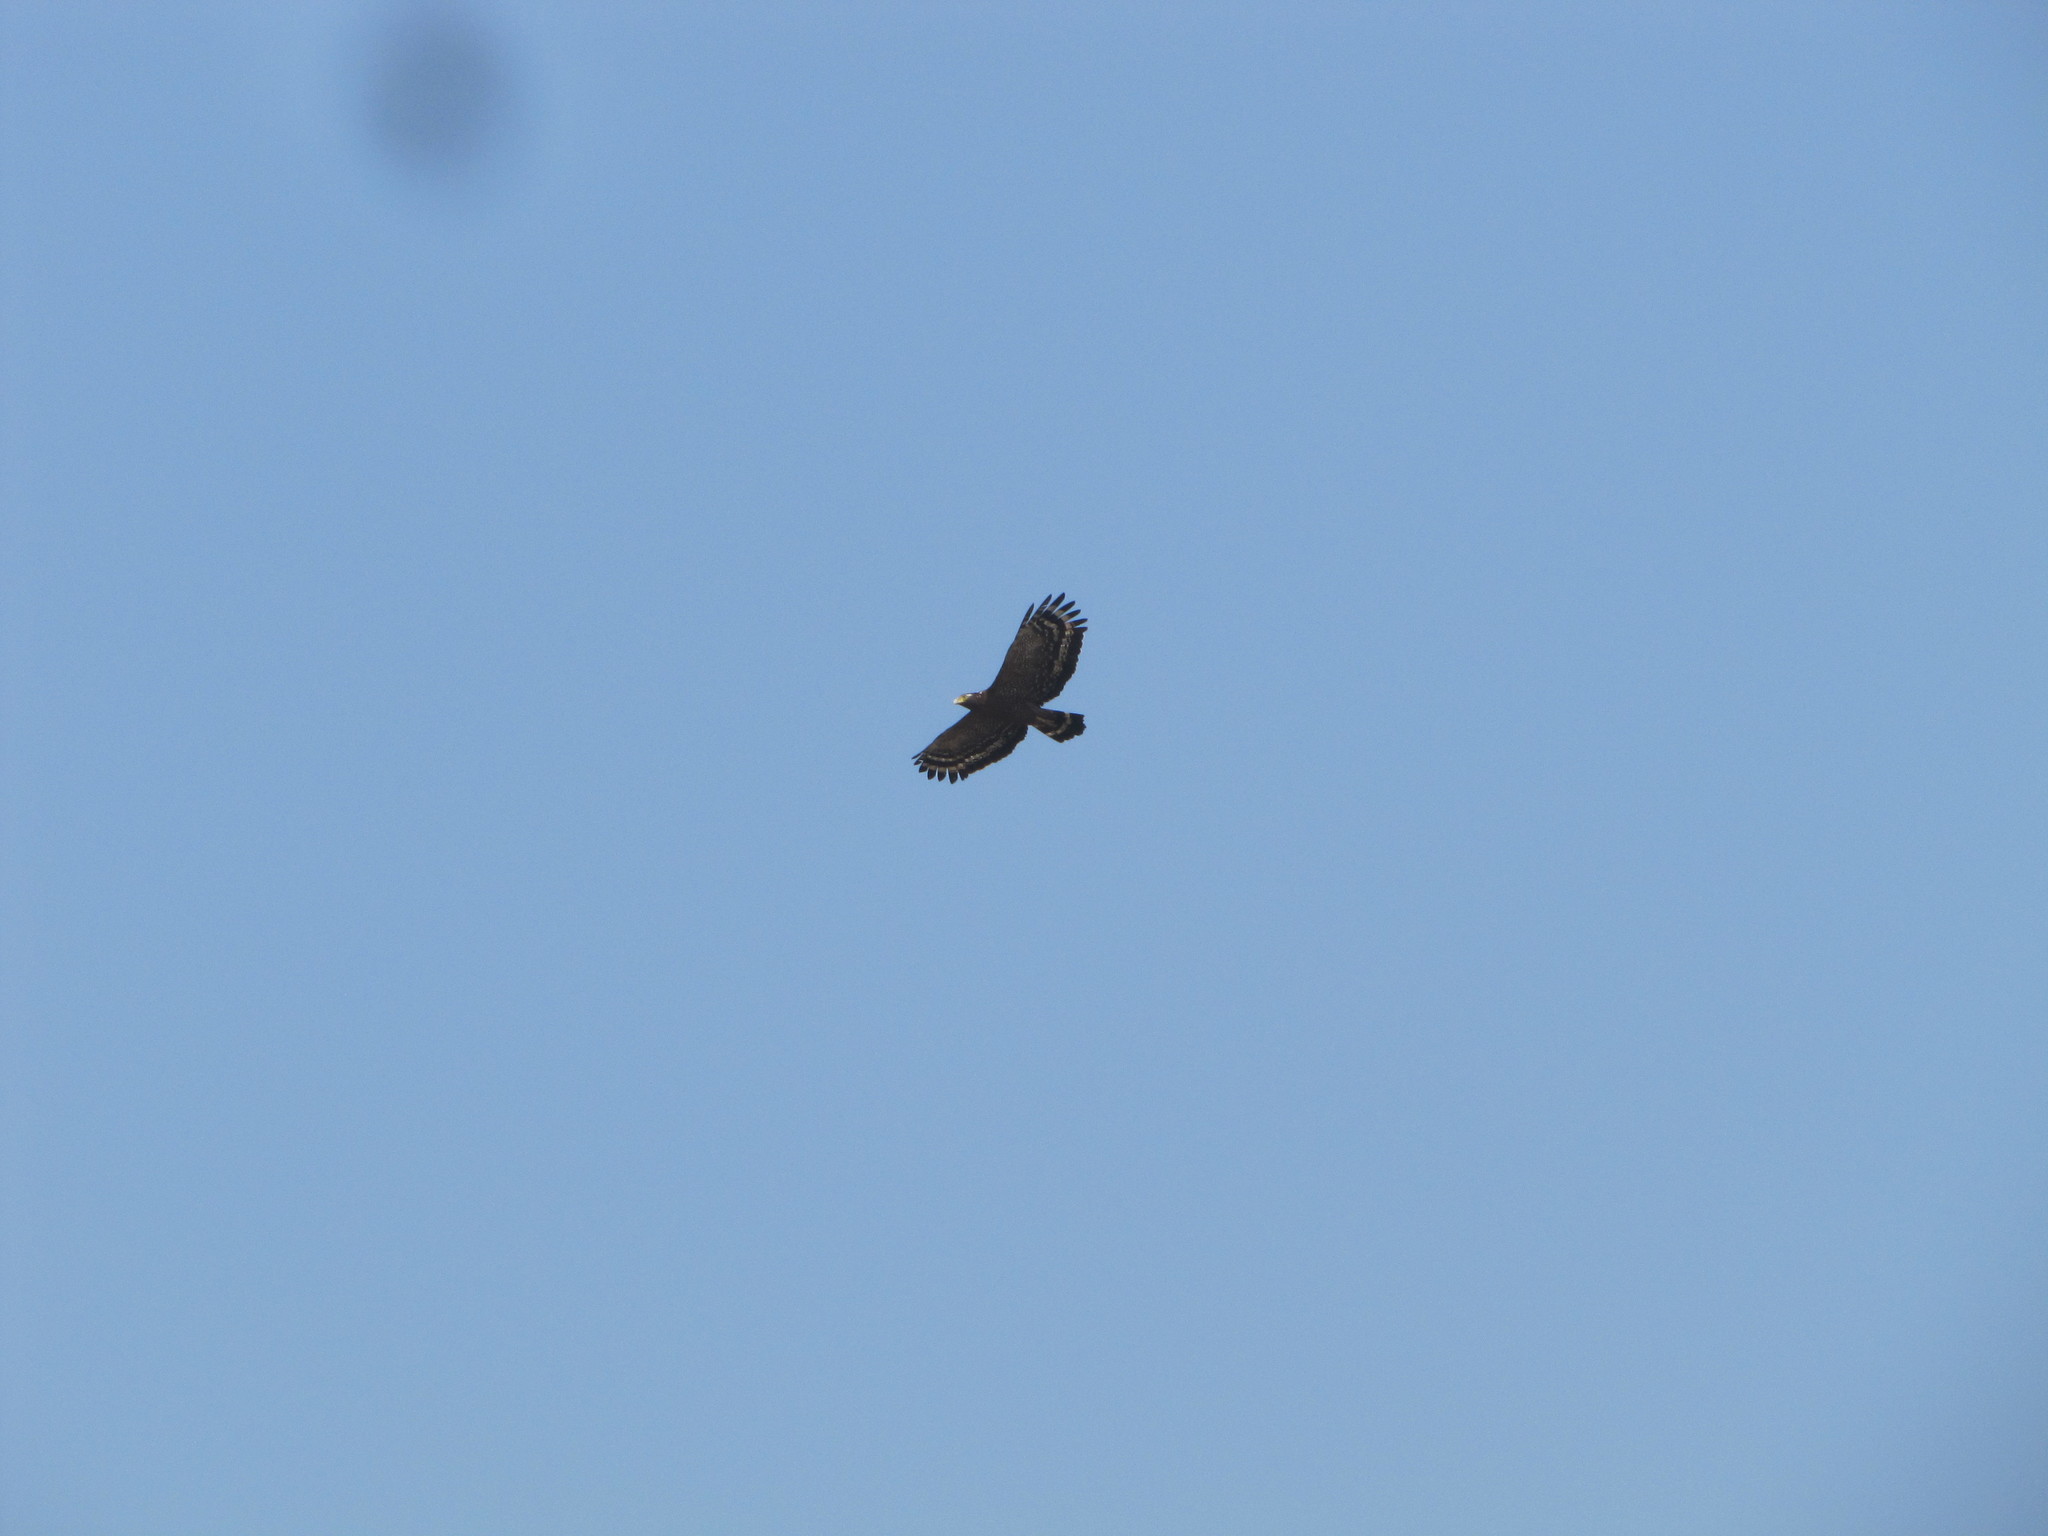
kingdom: Animalia
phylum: Chordata
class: Aves
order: Accipitriformes
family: Accipitridae
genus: Spilornis
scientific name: Spilornis cheela
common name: Crested serpent eagle
